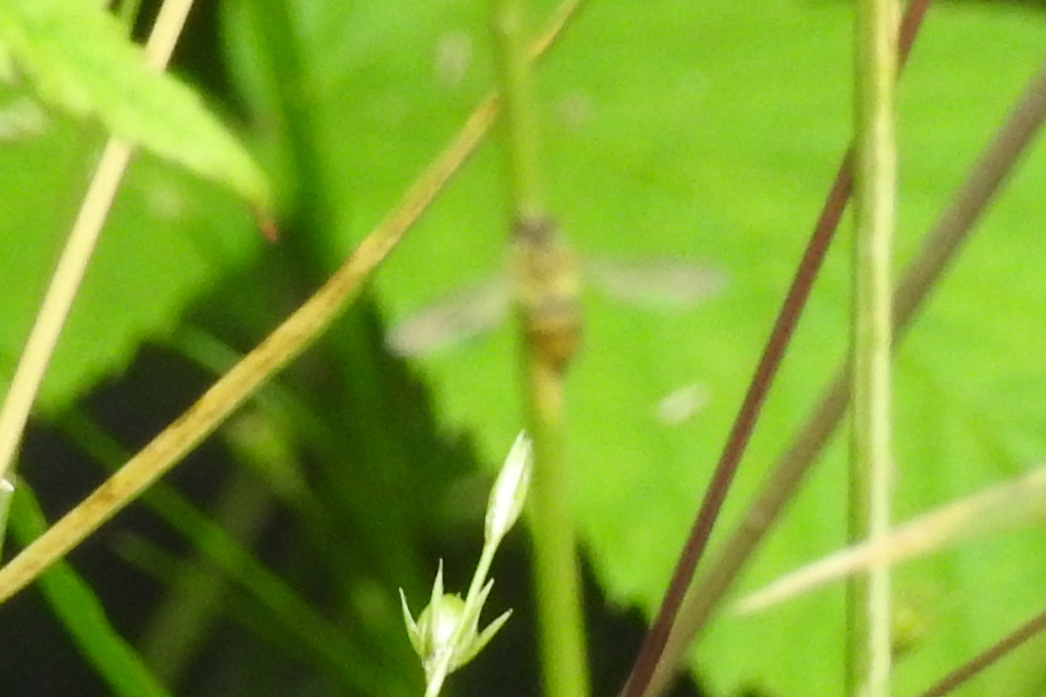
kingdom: Animalia
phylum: Arthropoda
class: Insecta
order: Diptera
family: Syrphidae
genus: Toxomerus
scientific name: Toxomerus
